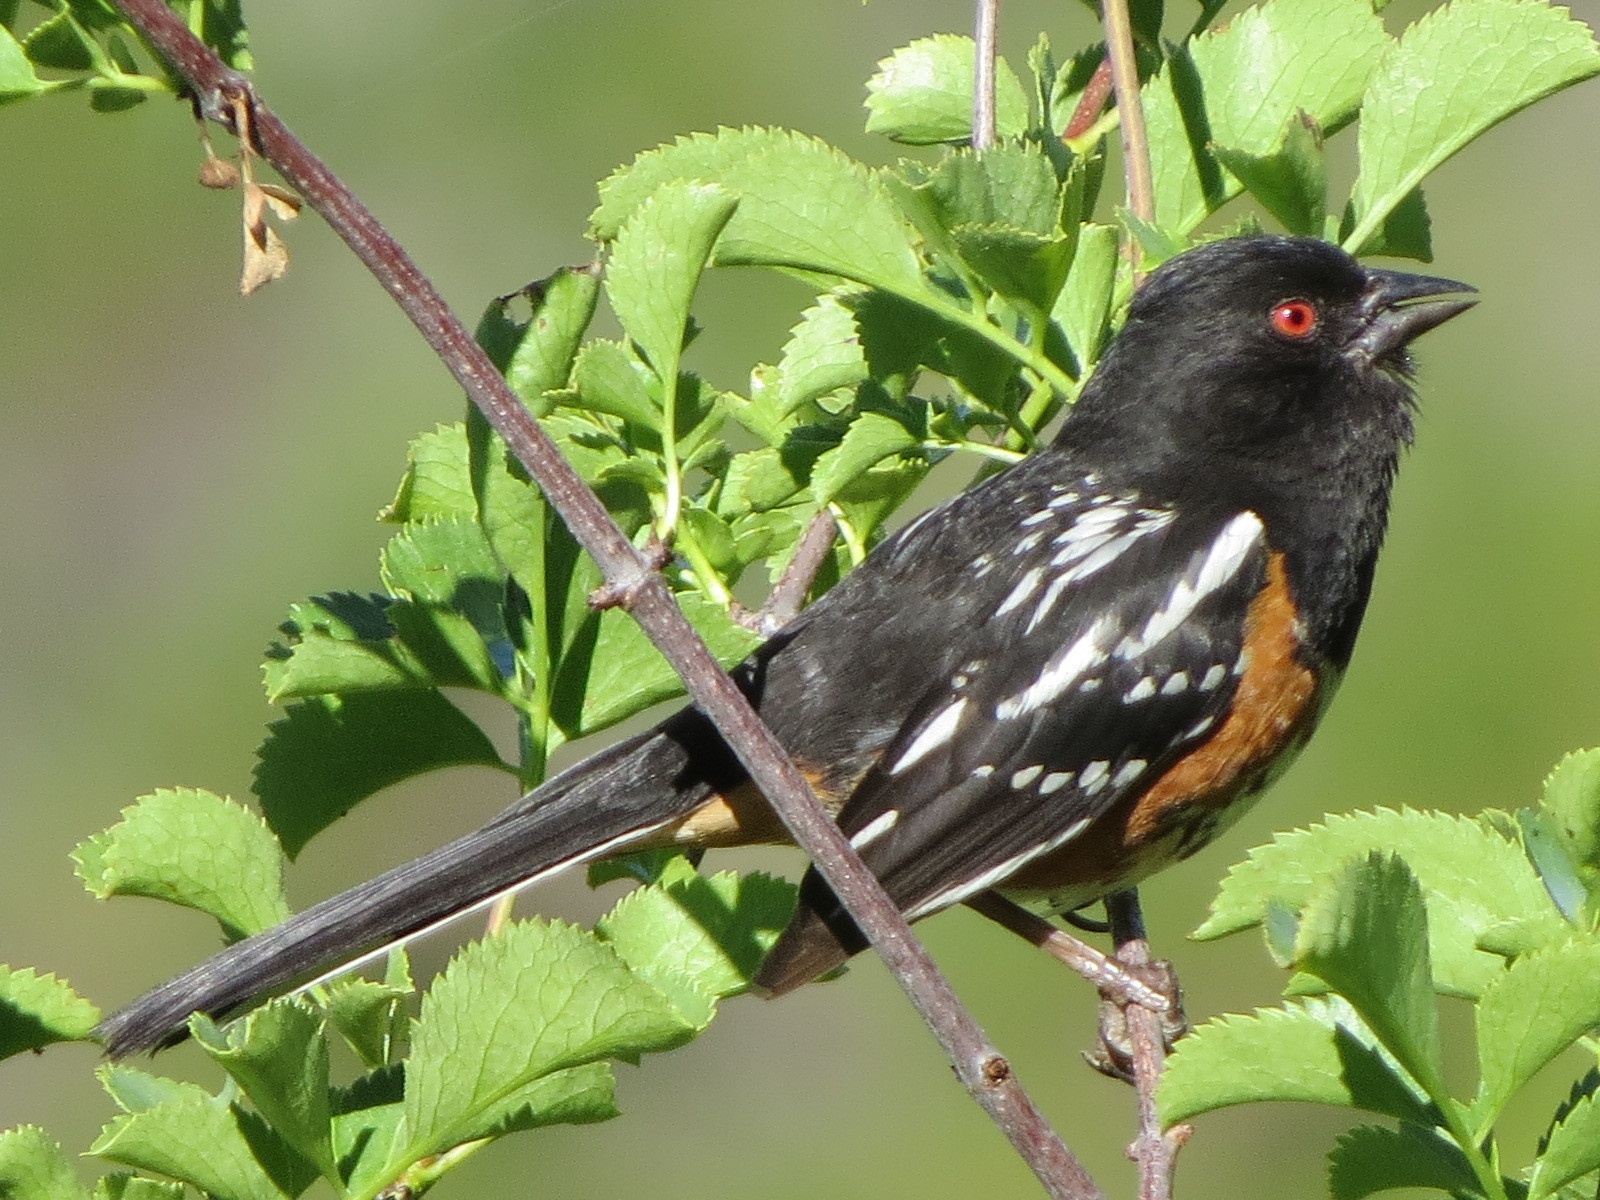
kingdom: Animalia
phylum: Chordata
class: Aves
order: Passeriformes
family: Passerellidae
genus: Pipilo
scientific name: Pipilo maculatus
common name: Spotted towhee
